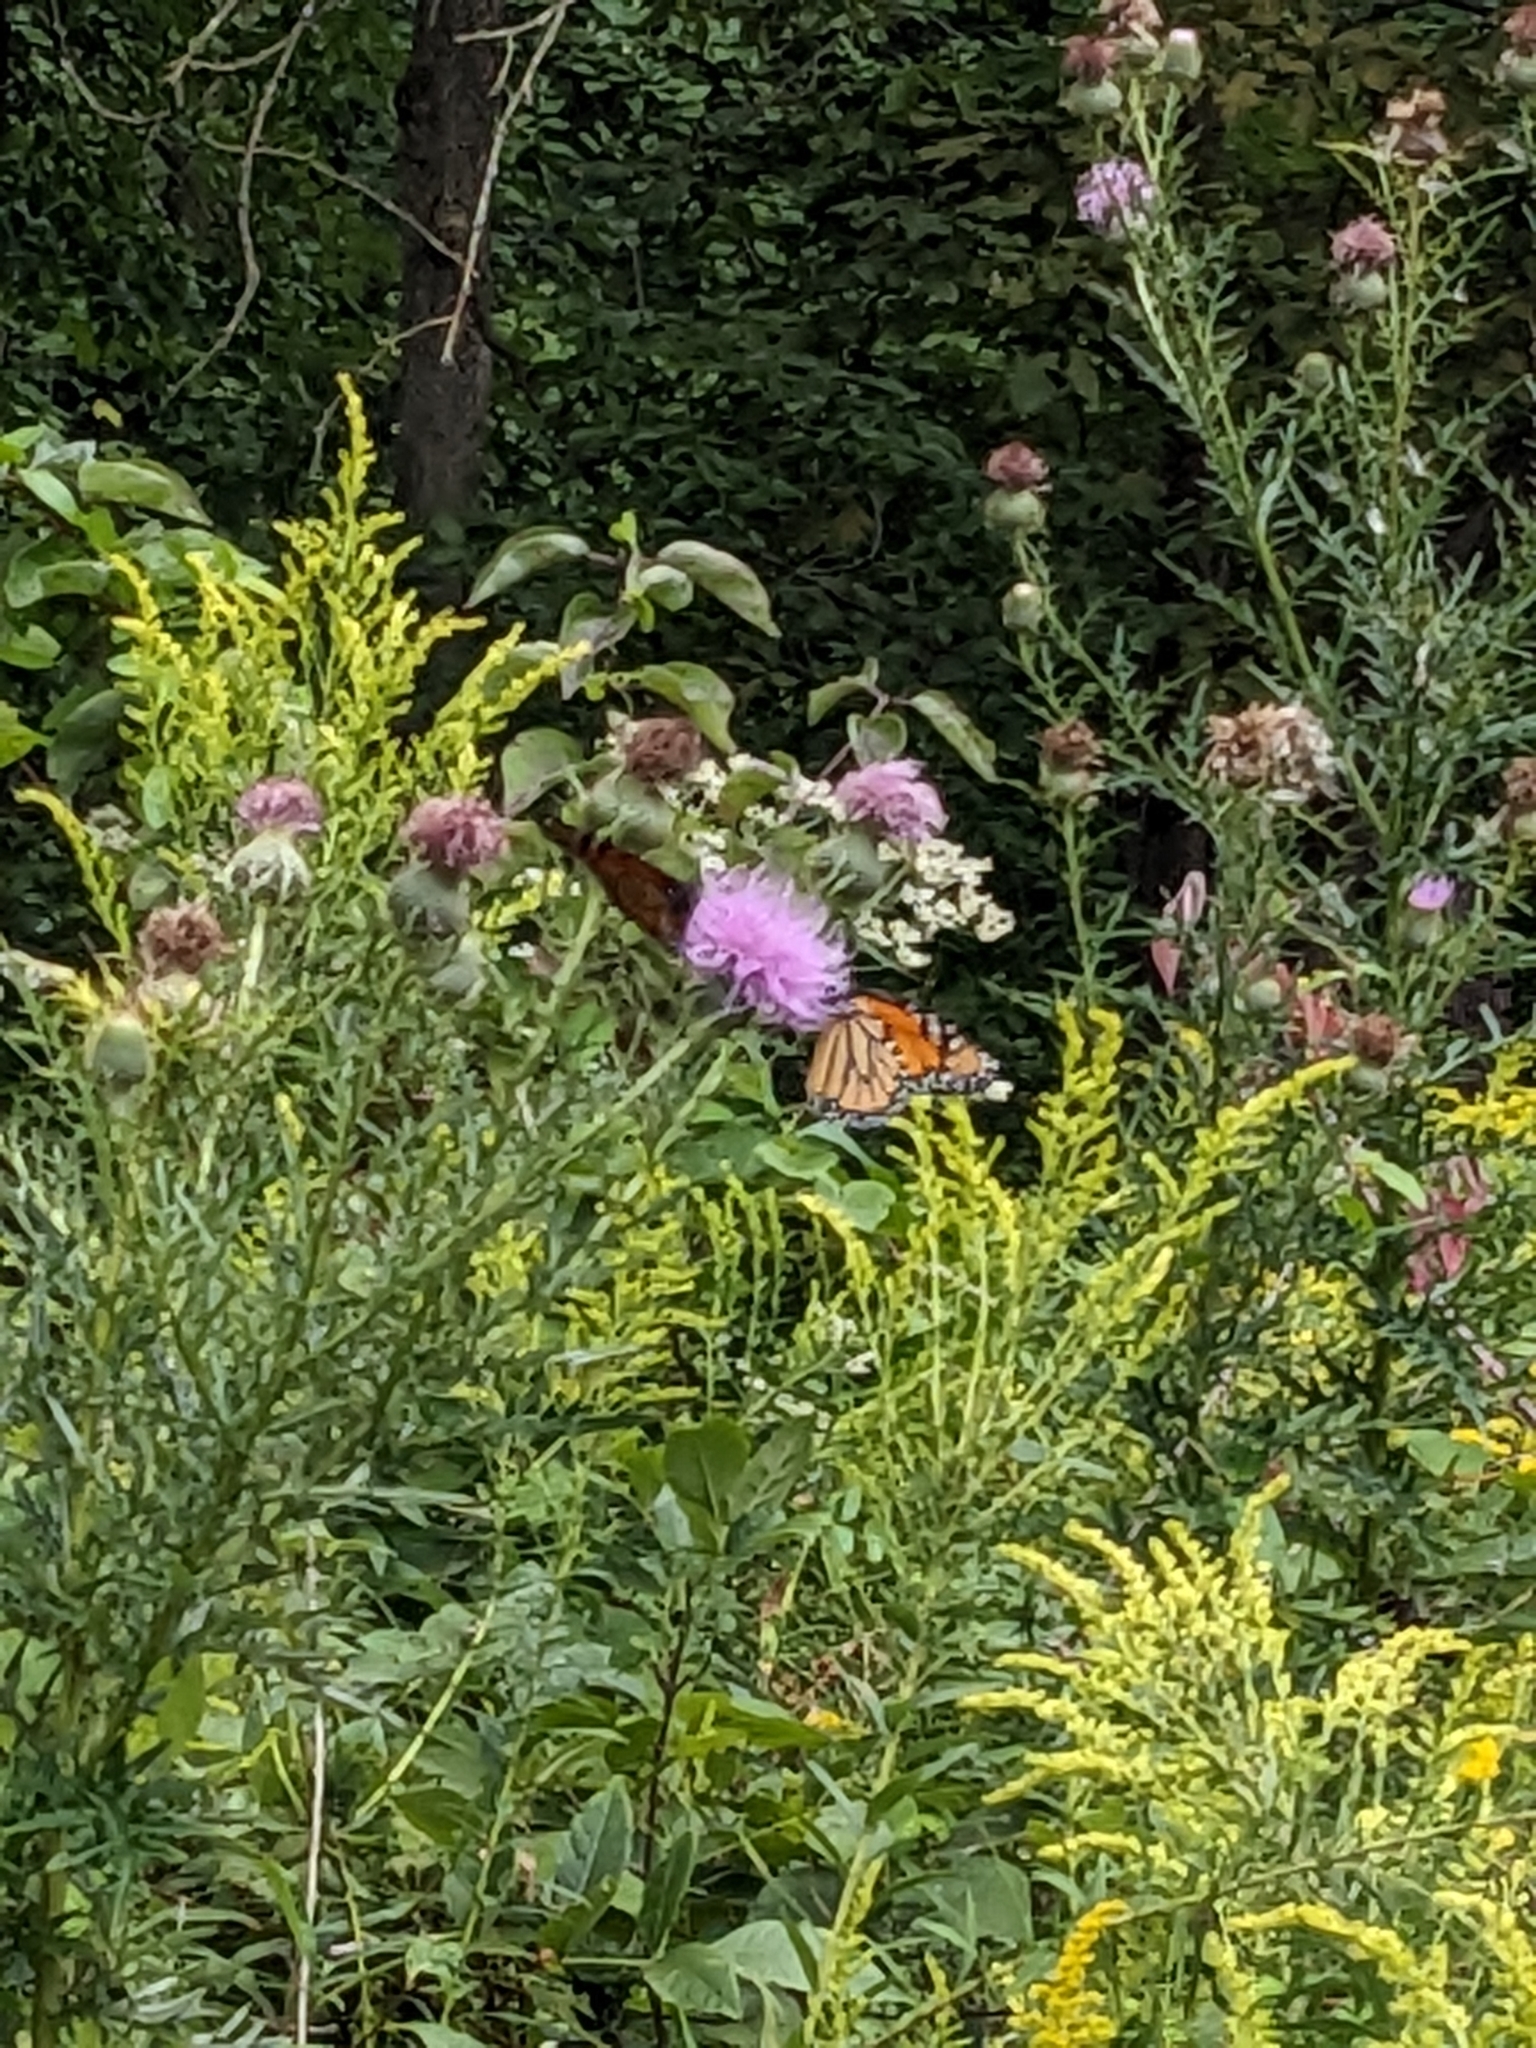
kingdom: Animalia
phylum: Arthropoda
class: Insecta
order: Lepidoptera
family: Nymphalidae
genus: Danaus
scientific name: Danaus plexippus
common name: Monarch
